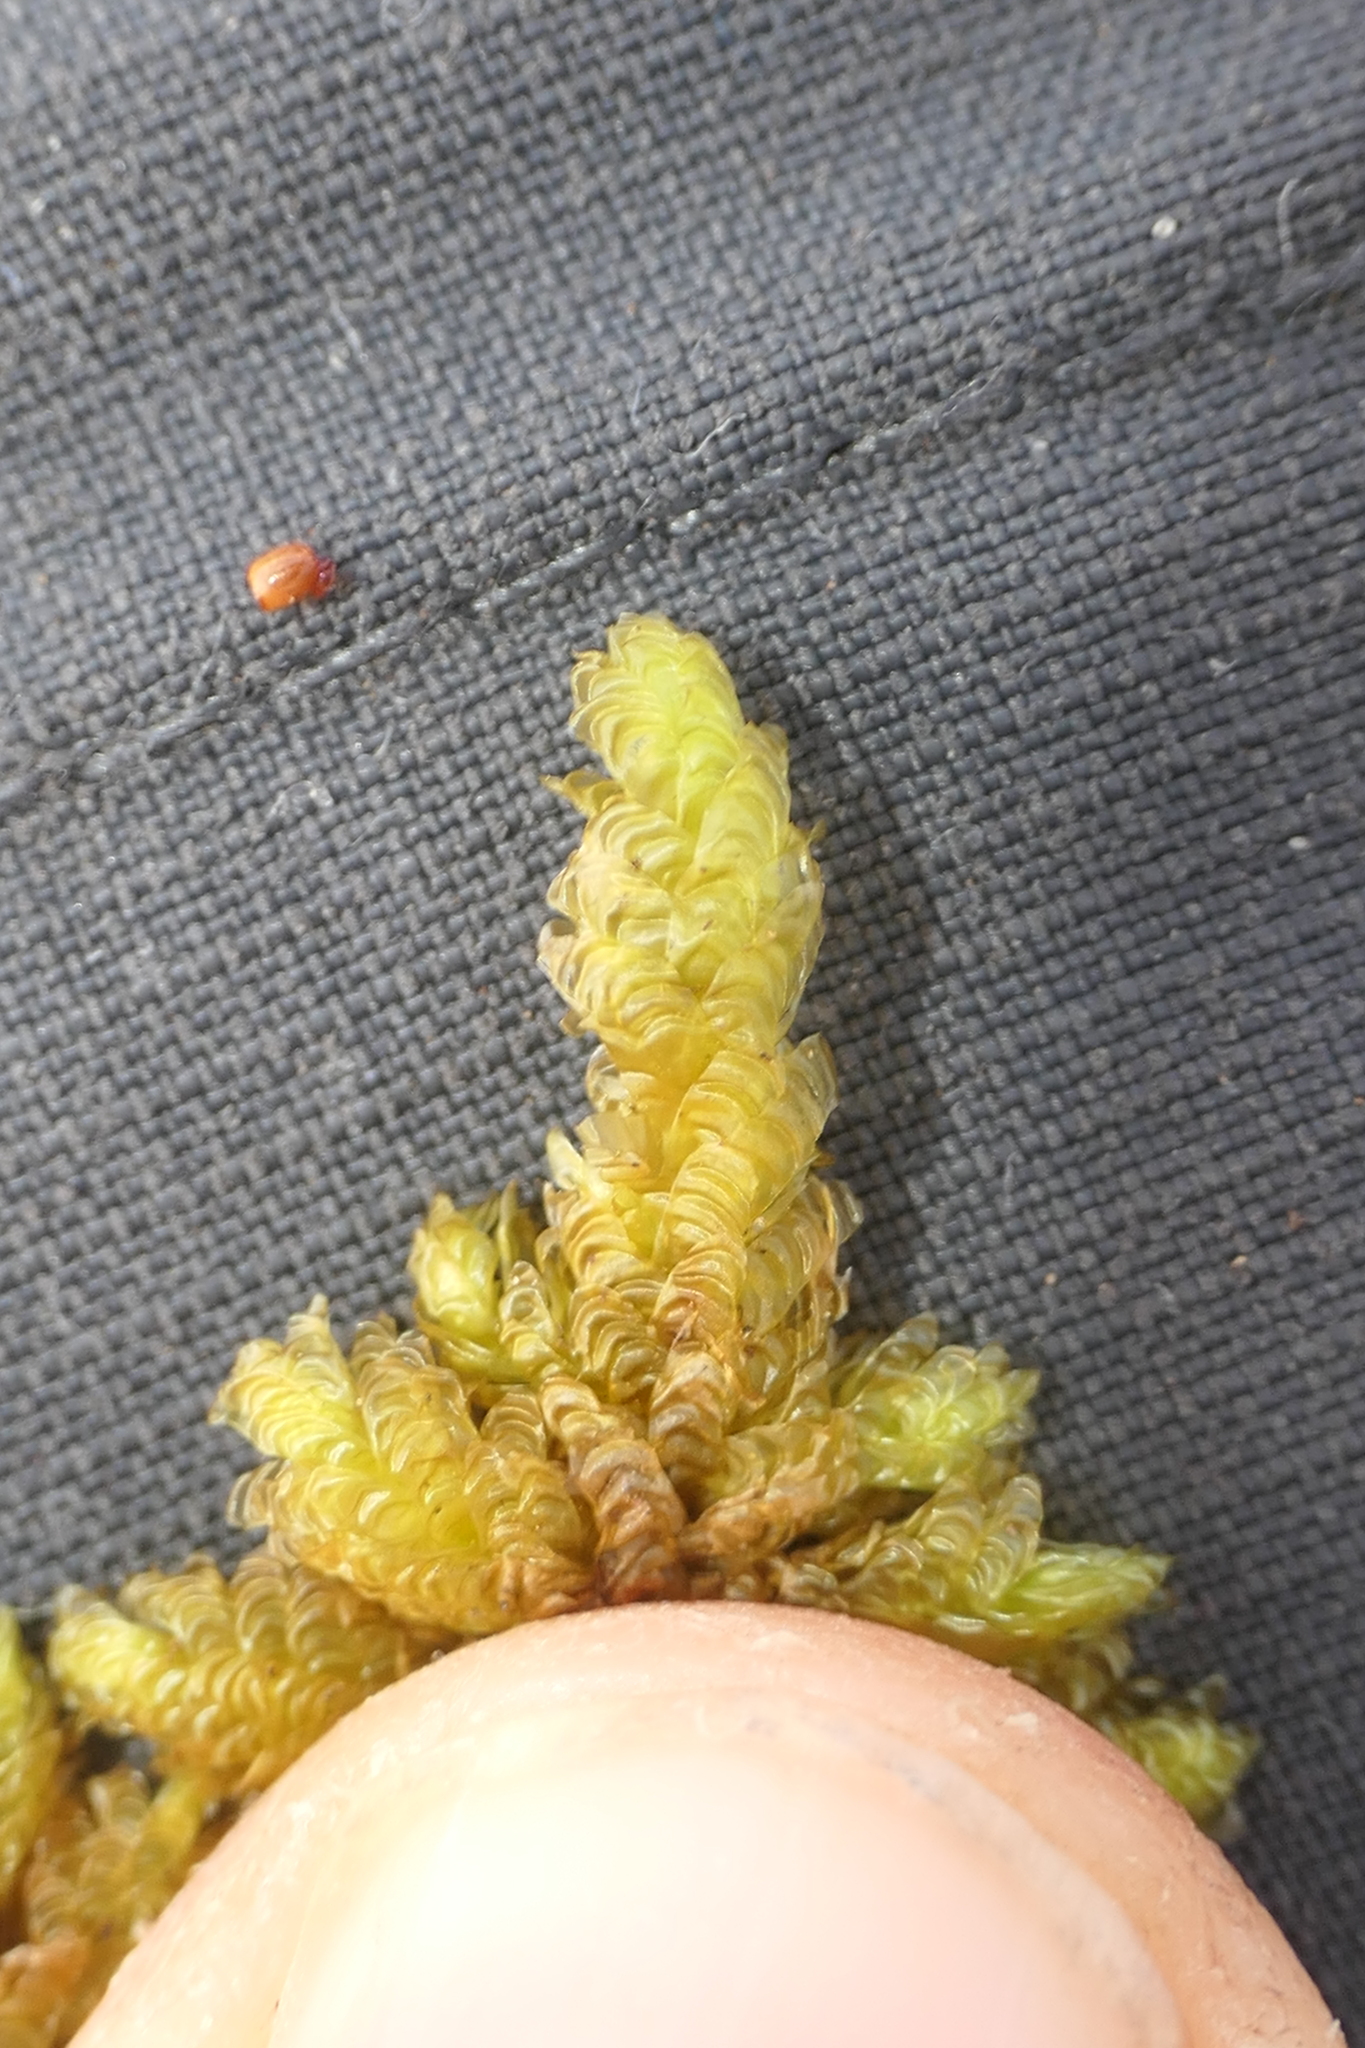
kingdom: Plantae
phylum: Bryophyta
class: Bryopsida
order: Hypnales
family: Neckeraceae
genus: Exsertotheca
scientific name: Exsertotheca crispa
